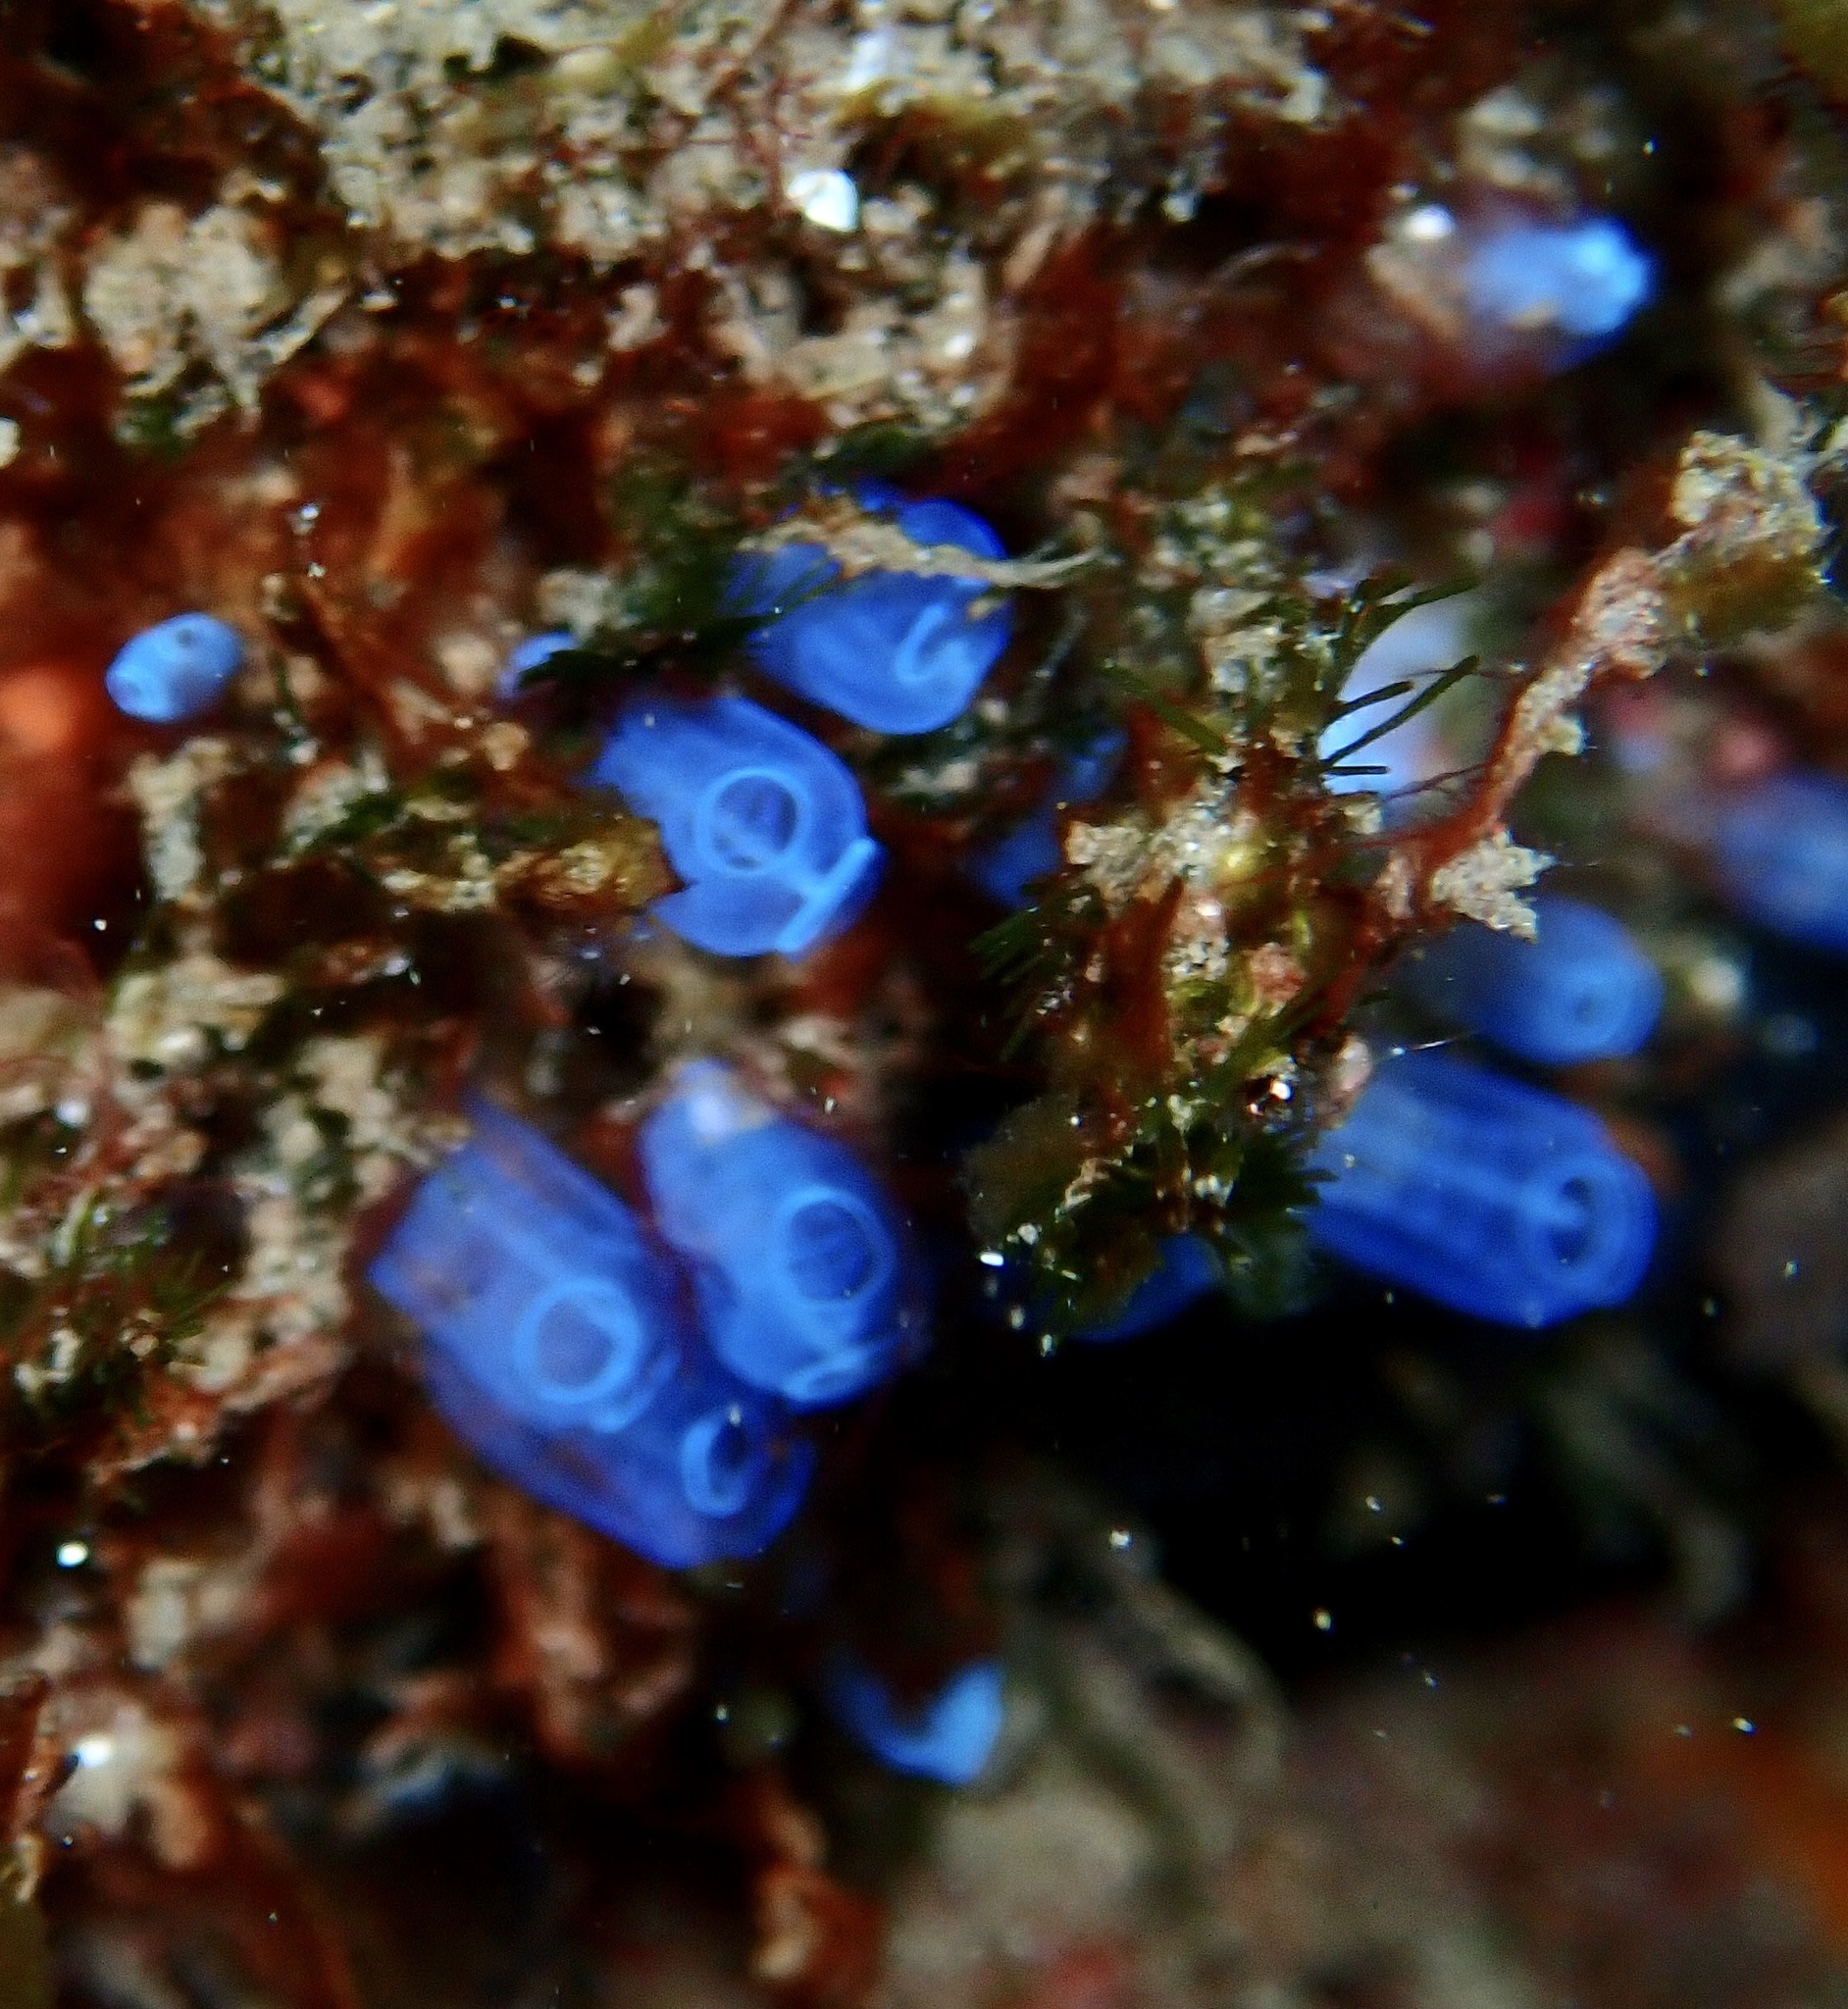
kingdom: Animalia
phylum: Chordata
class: Ascidiacea
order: Aplousobranchia
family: Clavelinidae
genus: Pycnoclavella
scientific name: Pycnoclavella atlantica
